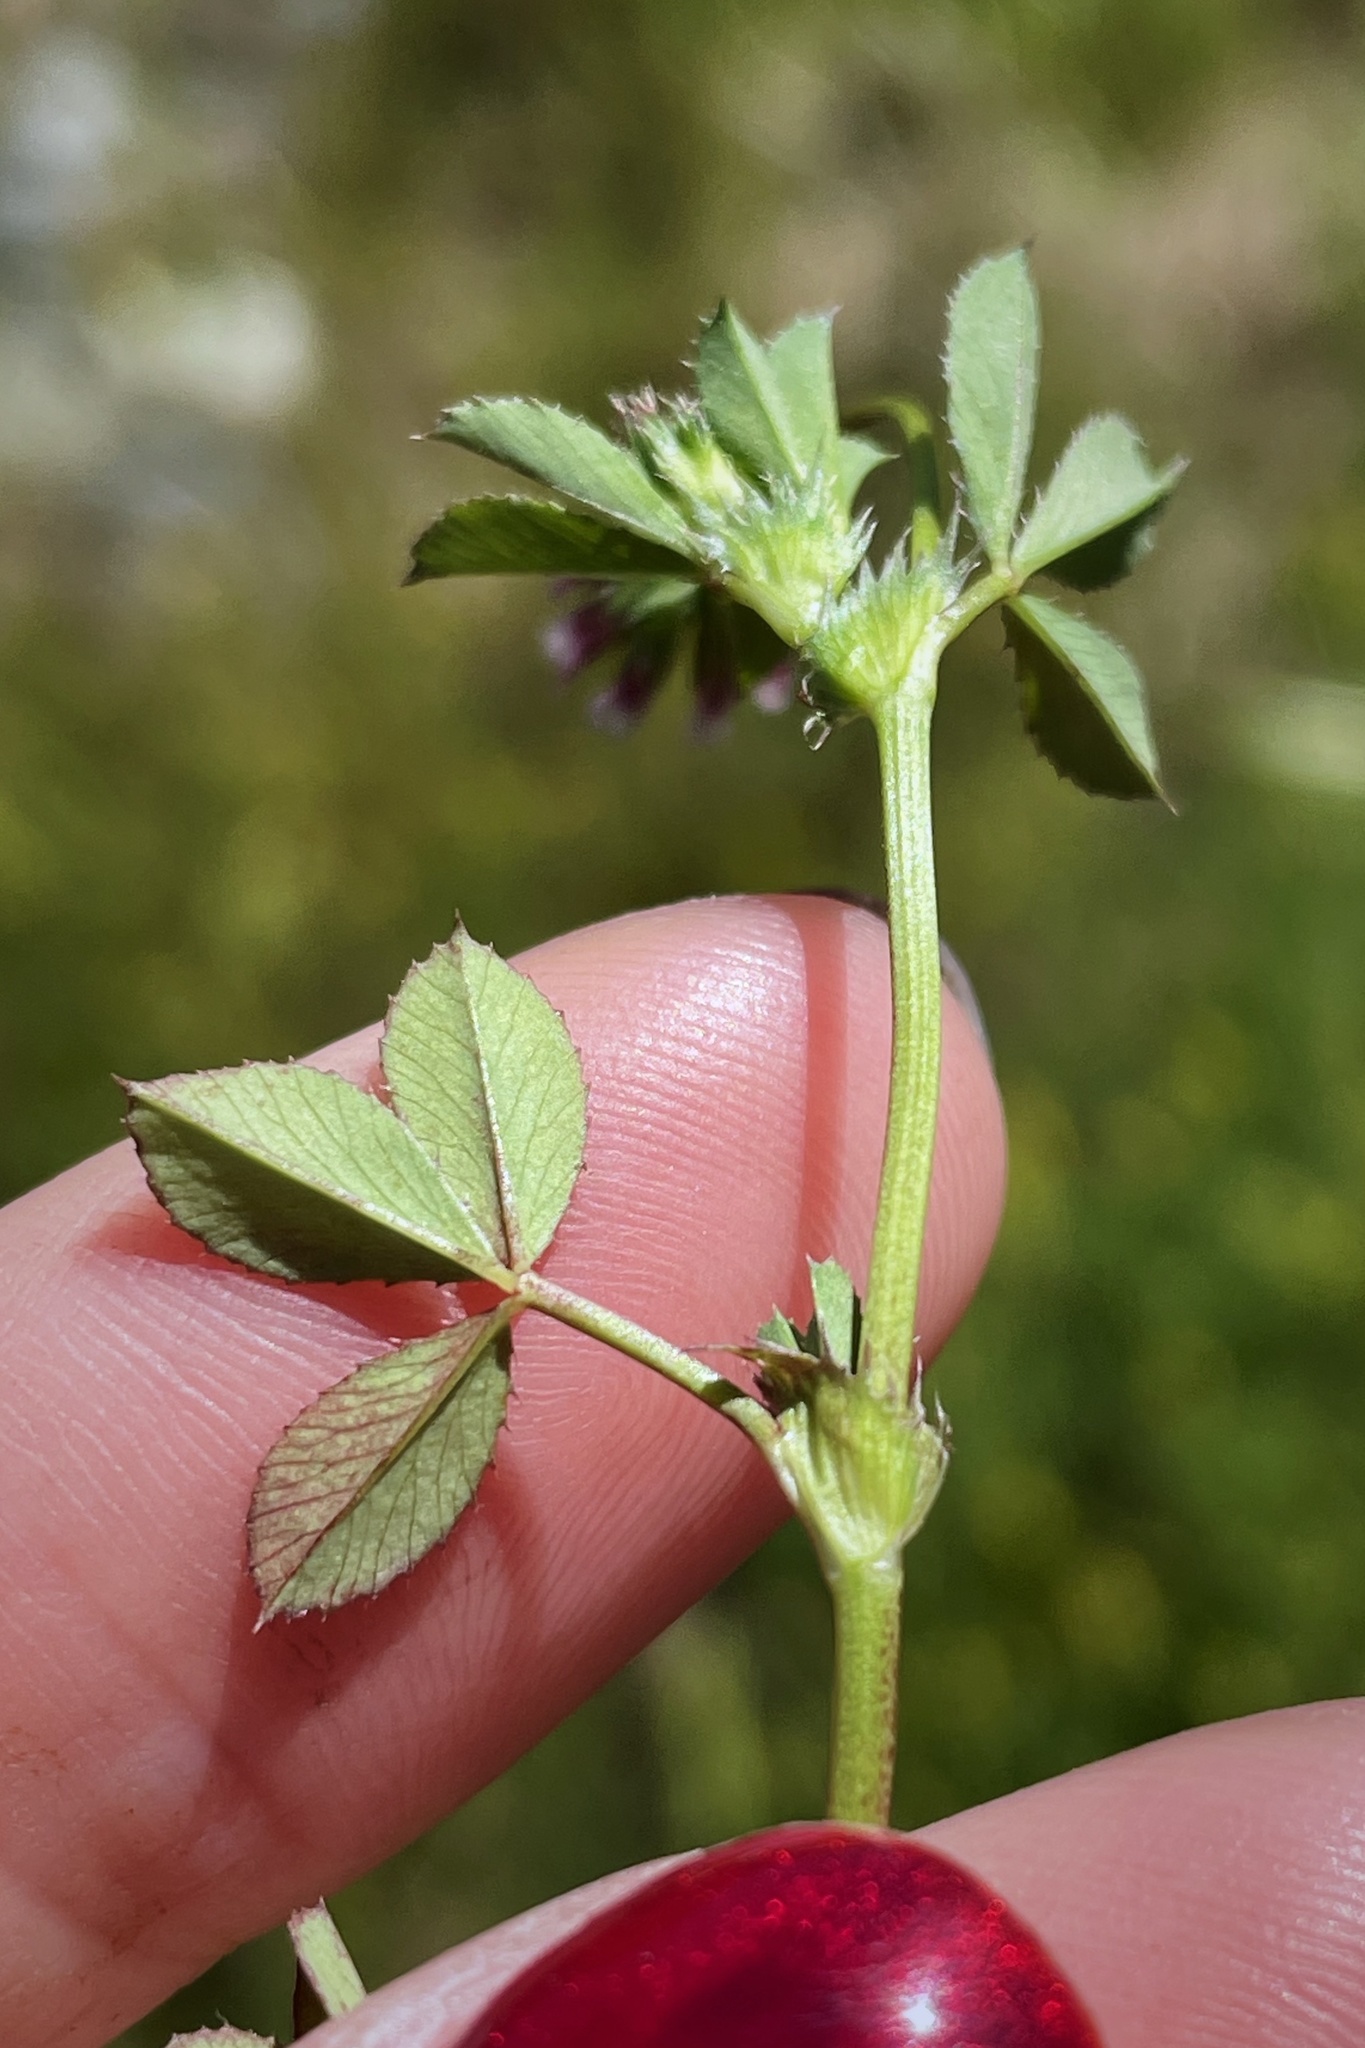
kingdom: Plantae
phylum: Tracheophyta
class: Magnoliopsida
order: Fabales
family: Fabaceae
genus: Trifolium
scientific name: Trifolium variegatum
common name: Whitetip clover
